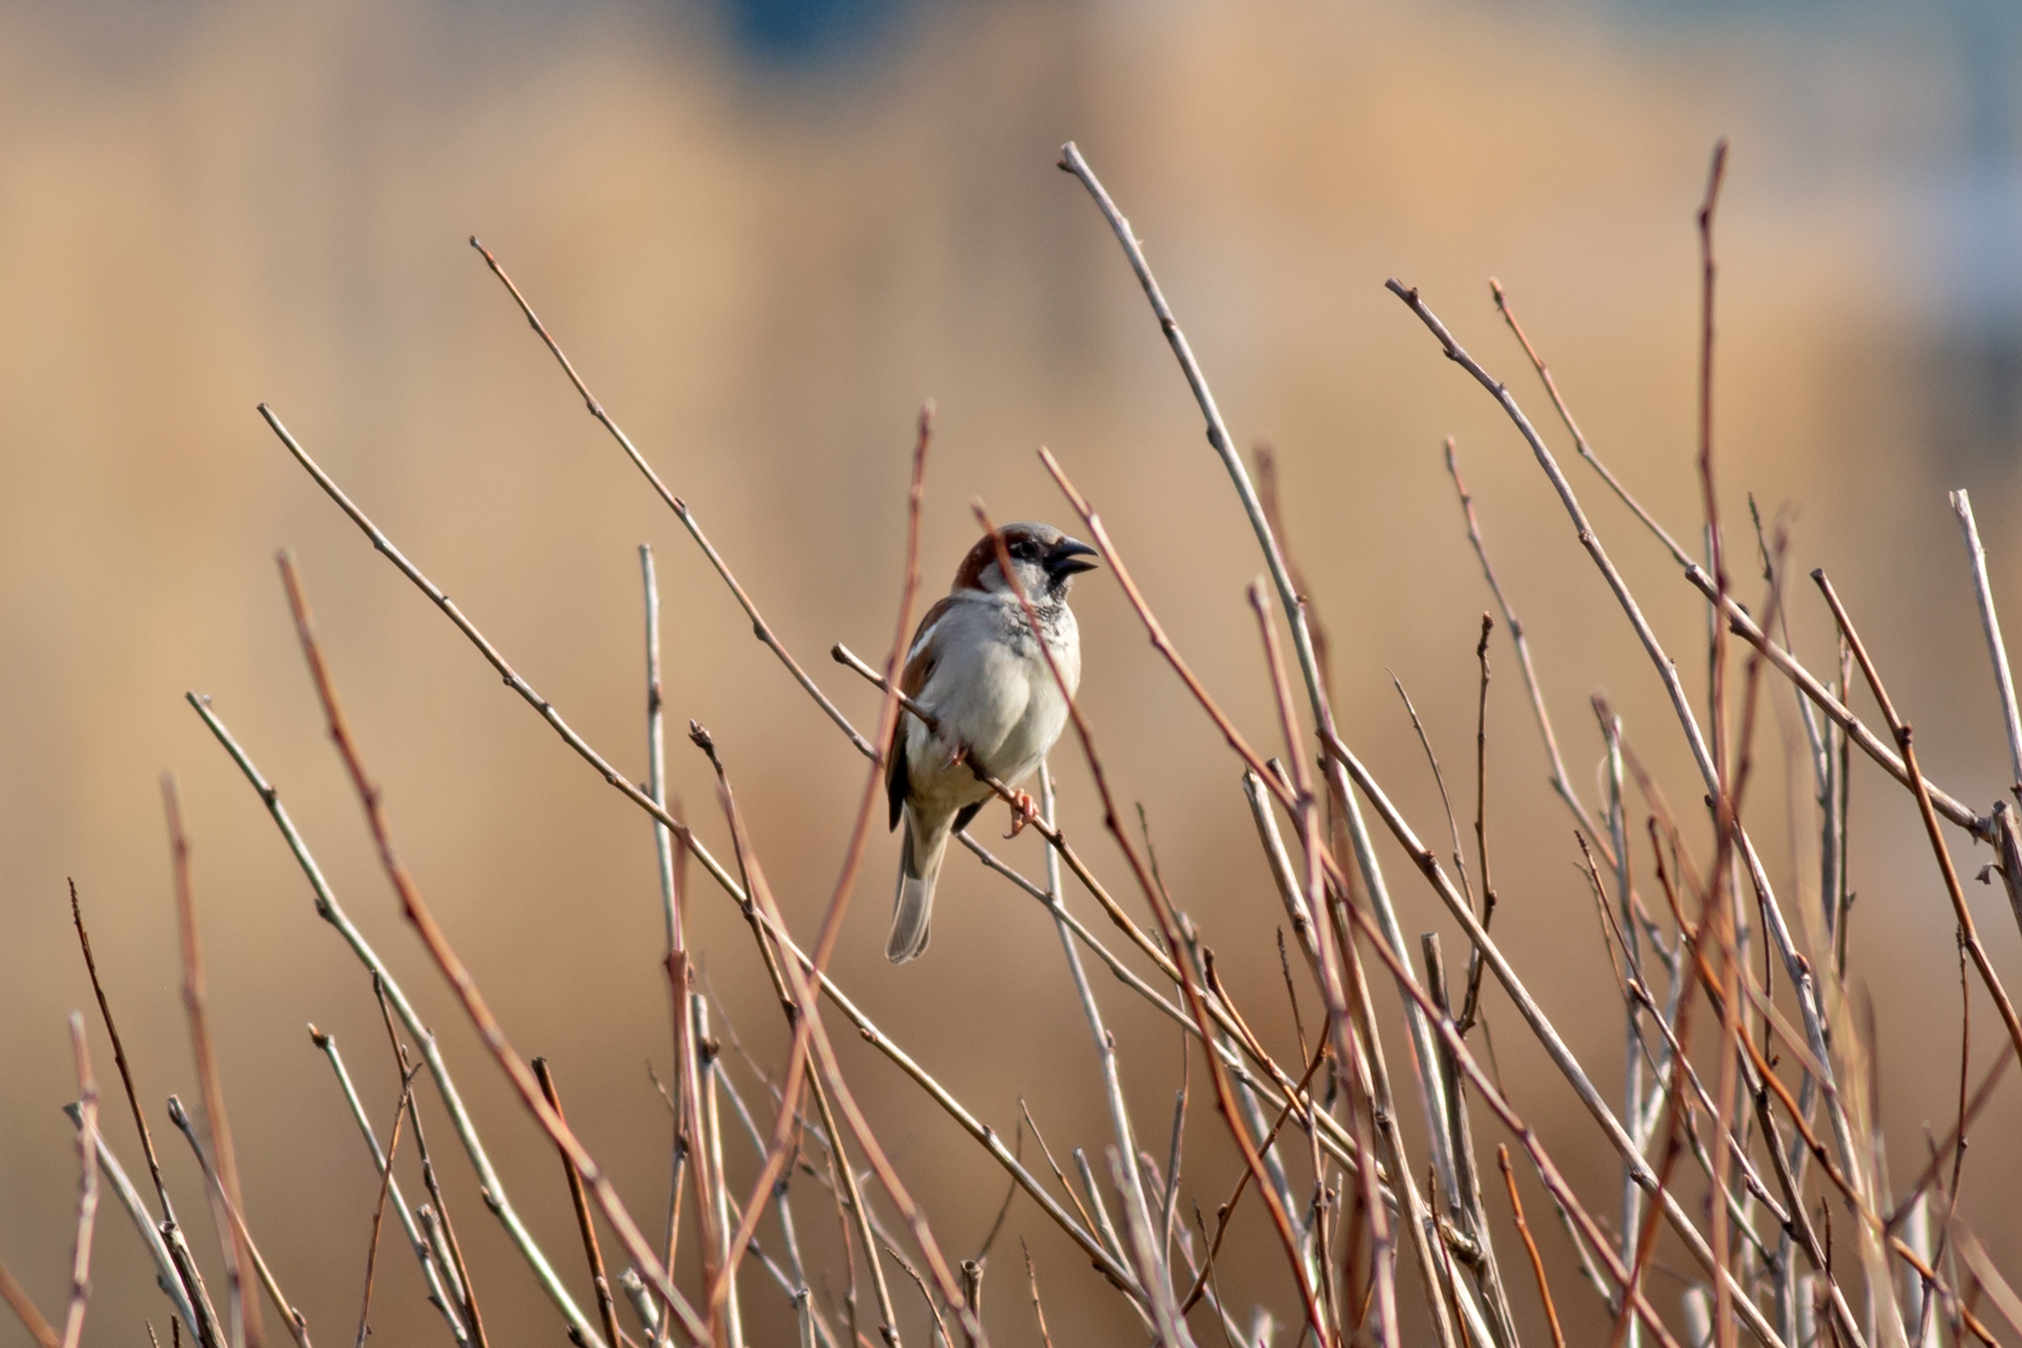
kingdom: Animalia
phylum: Chordata
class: Aves
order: Passeriformes
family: Passeridae
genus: Passer
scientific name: Passer domesticus
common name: House sparrow
